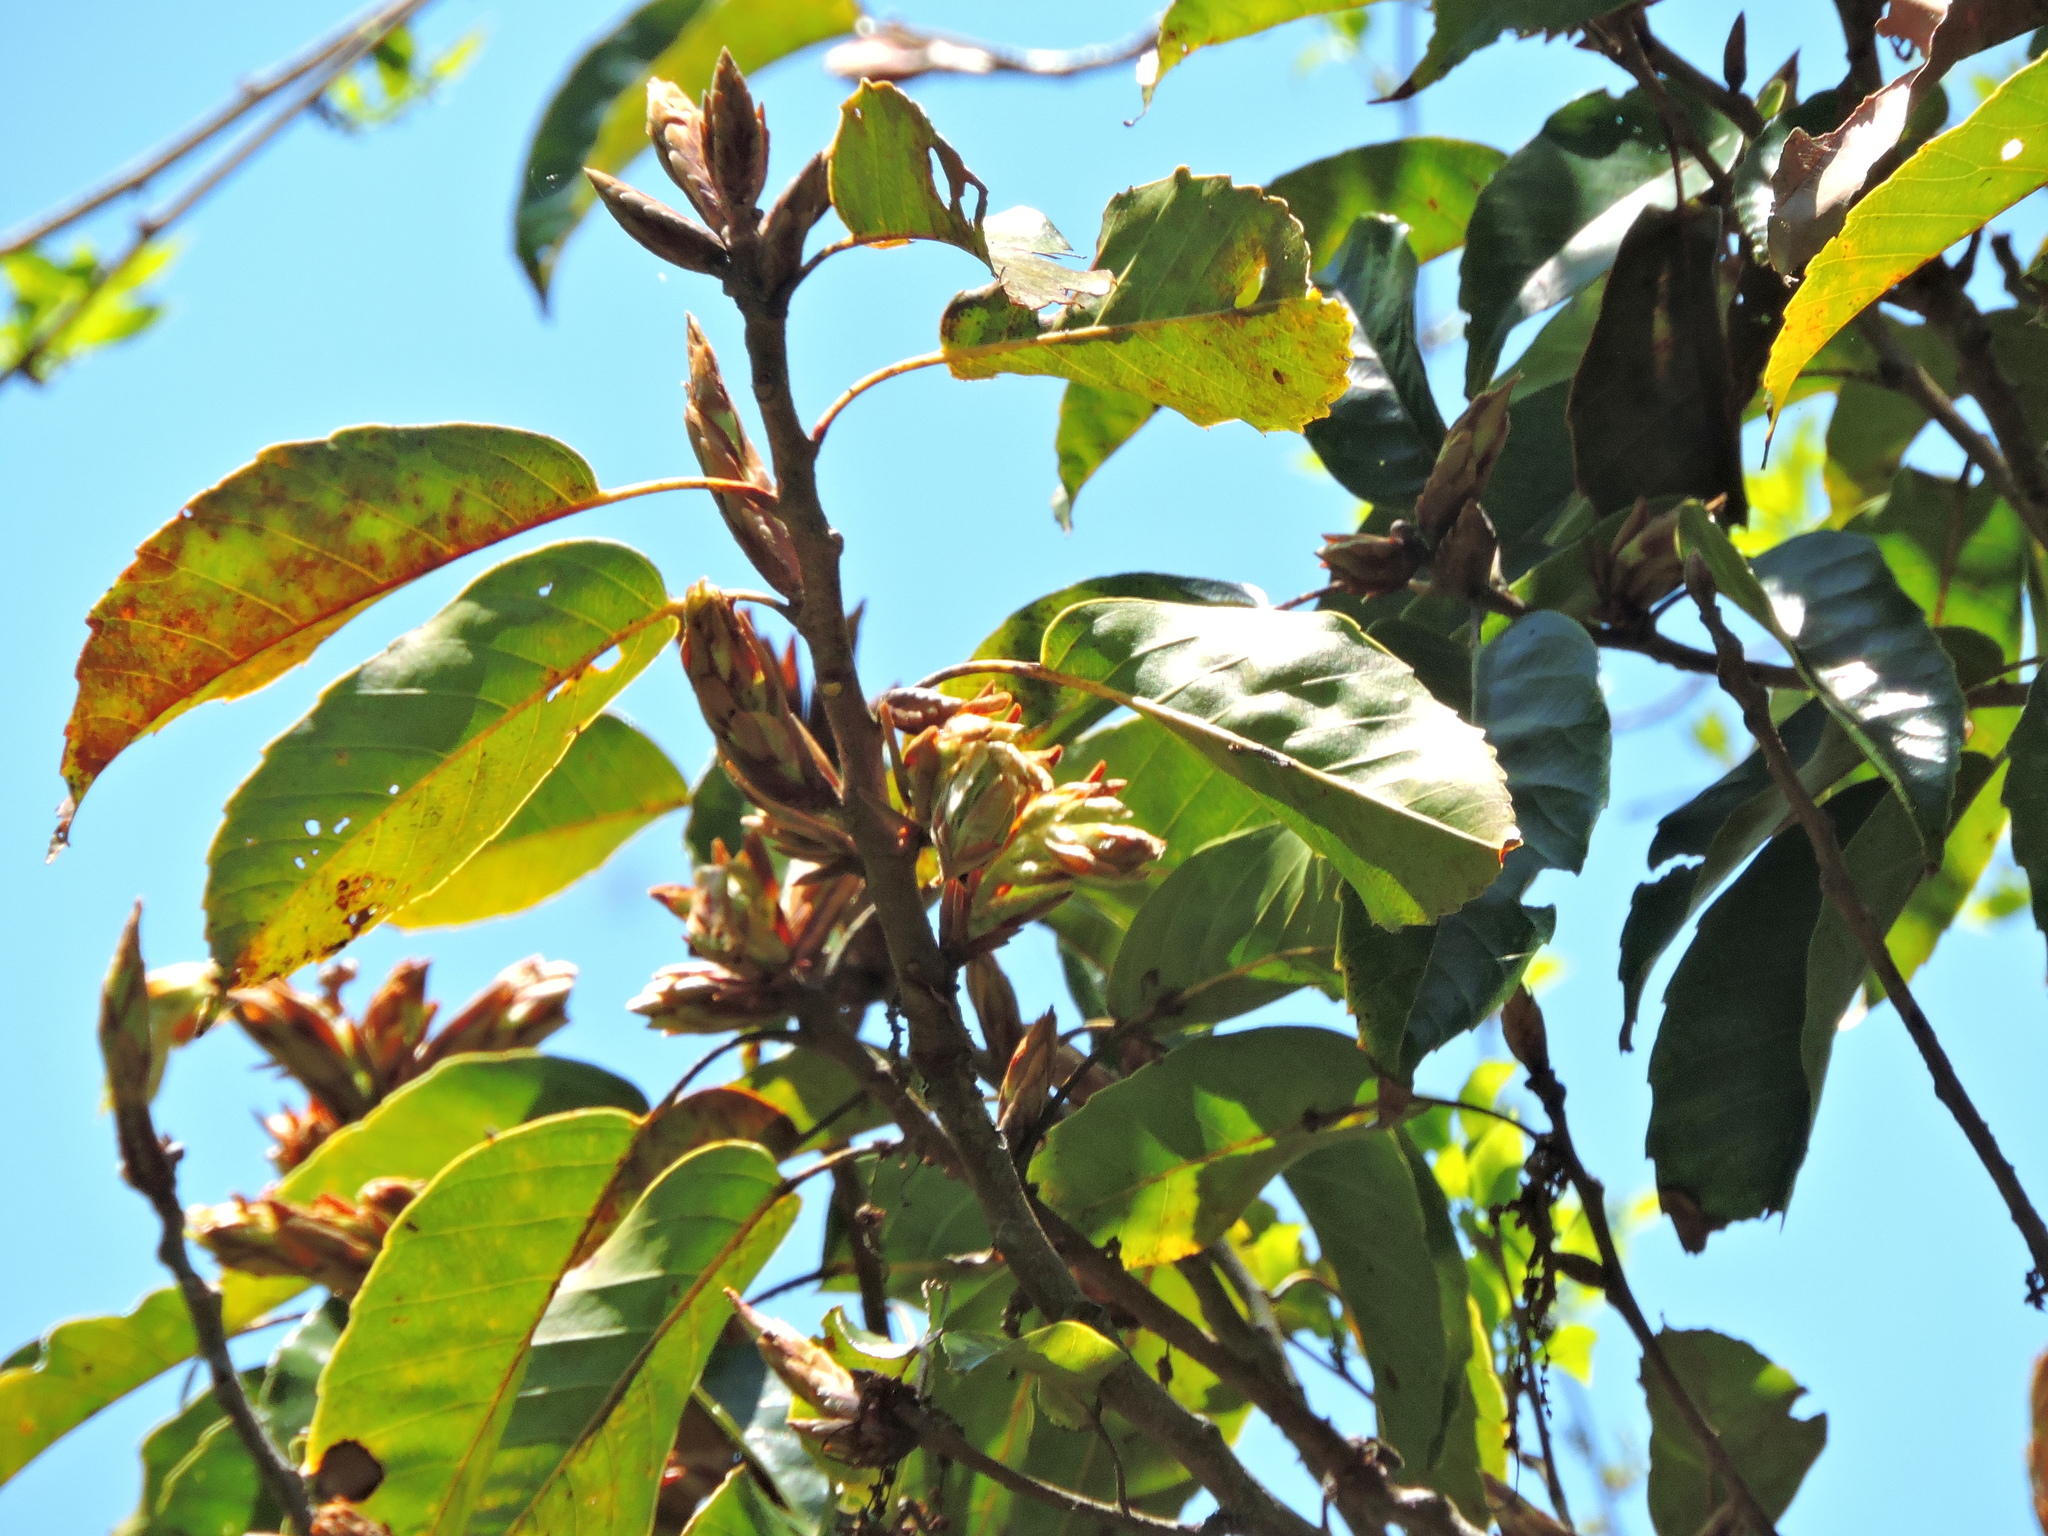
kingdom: Plantae
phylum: Tracheophyta
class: Magnoliopsida
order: Fagales
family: Fagaceae
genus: Quercus
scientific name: Quercus morii
